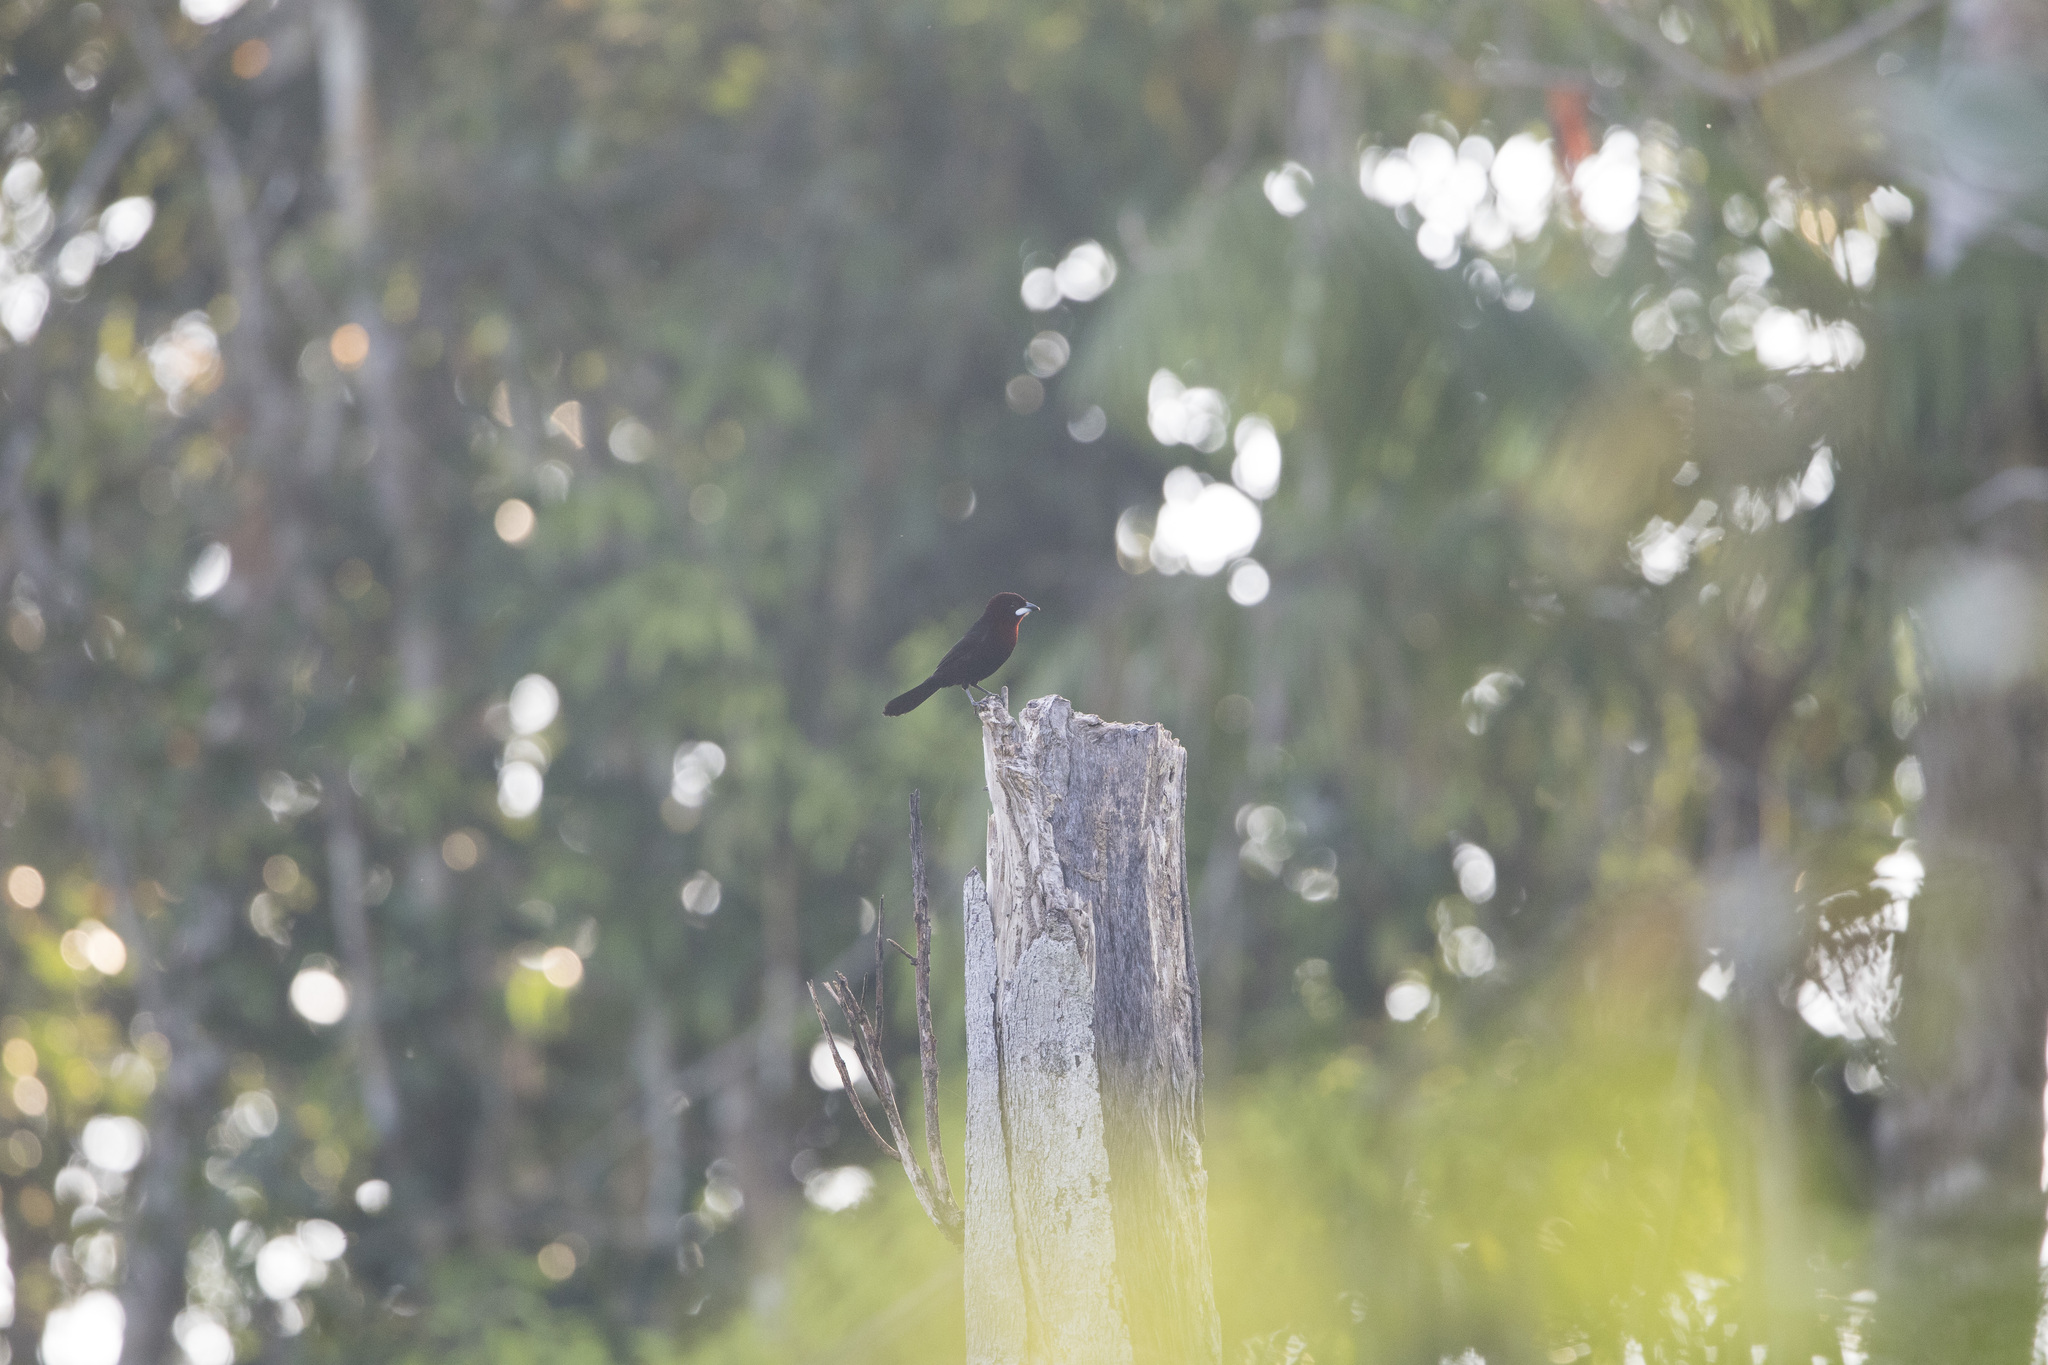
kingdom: Animalia
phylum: Chordata
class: Aves
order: Passeriformes
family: Thraupidae
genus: Ramphocelus
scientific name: Ramphocelus carbo
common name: Silver-beaked tanager
